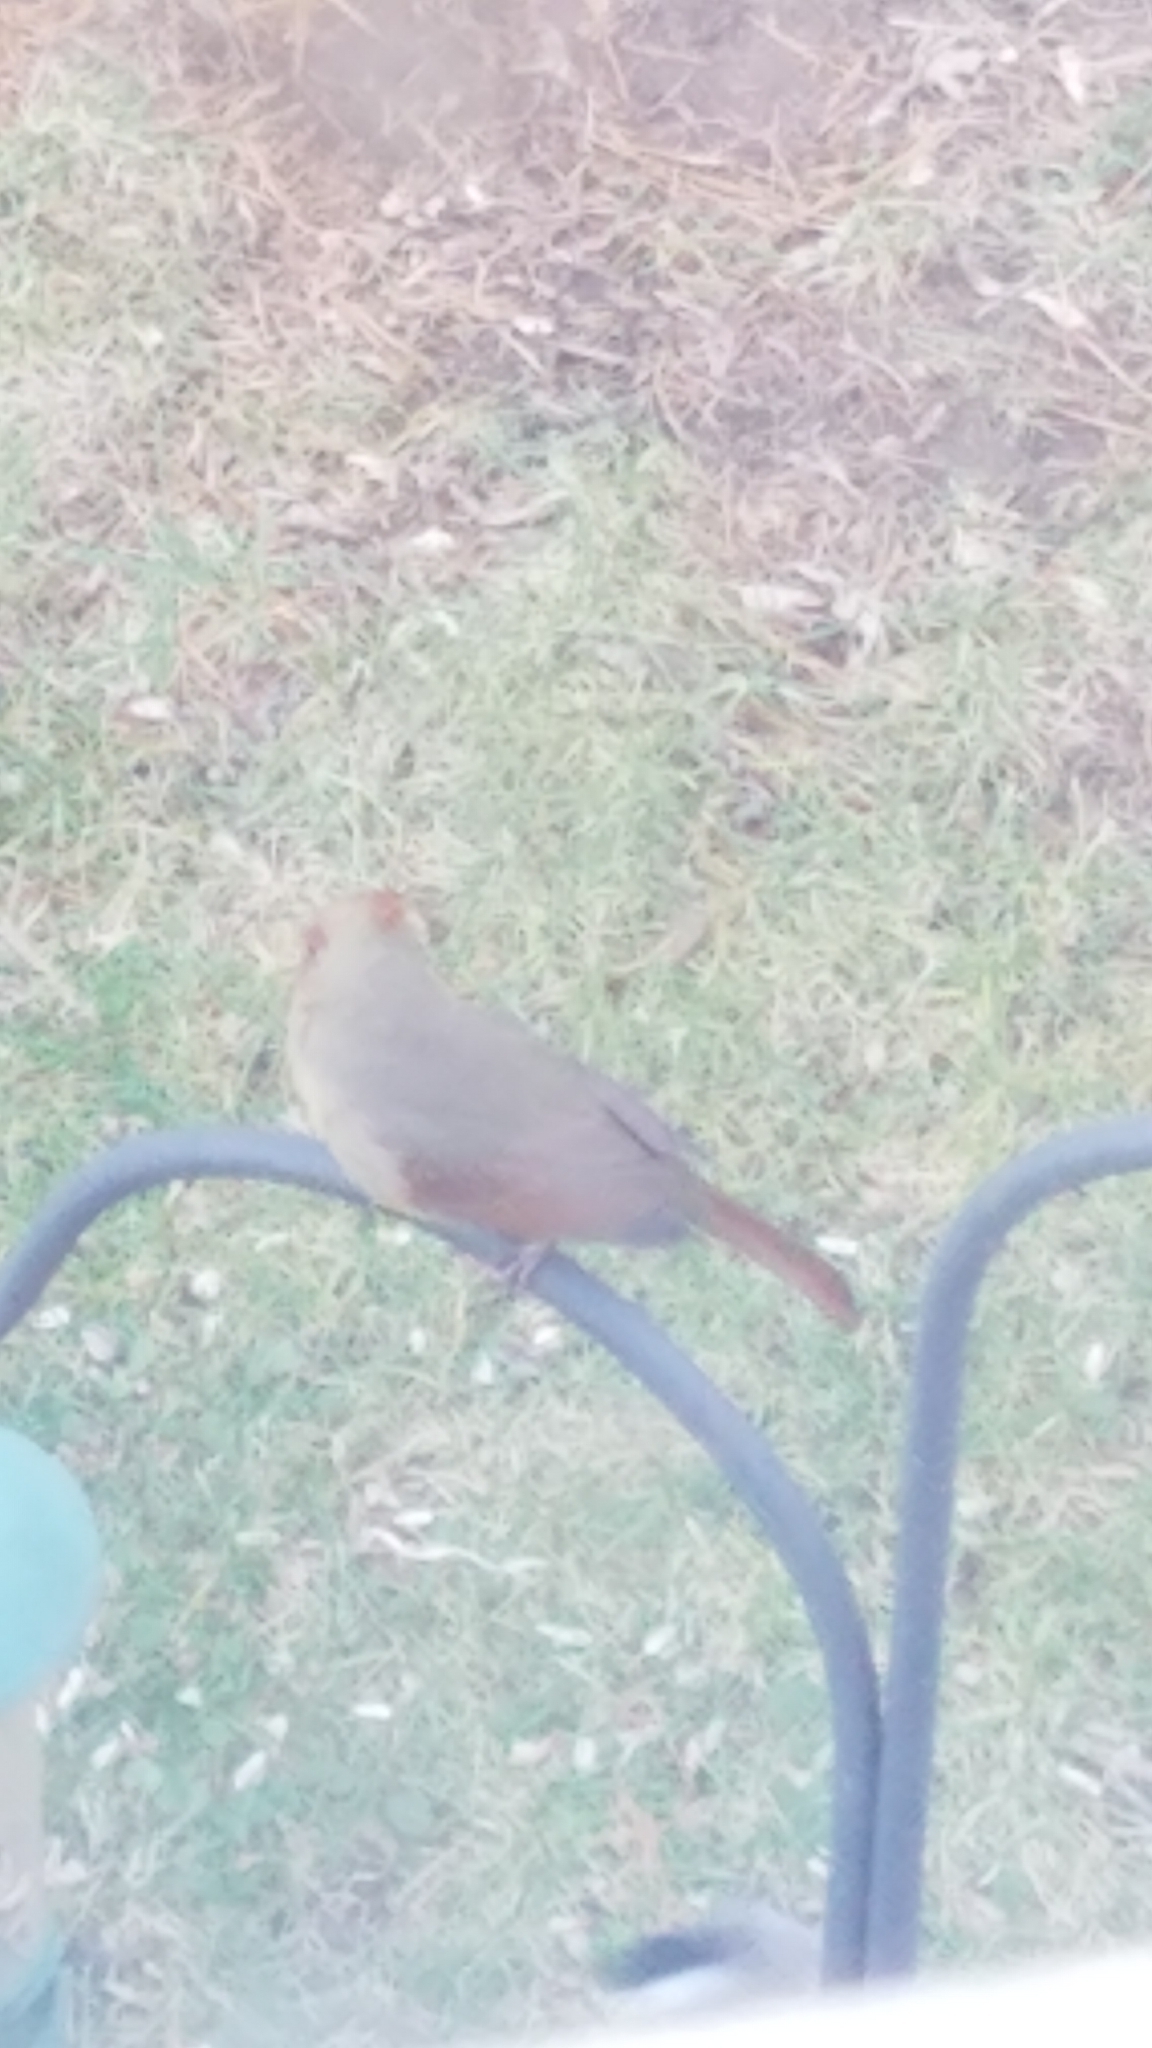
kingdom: Animalia
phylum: Chordata
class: Aves
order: Passeriformes
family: Cardinalidae
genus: Cardinalis
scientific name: Cardinalis cardinalis
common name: Northern cardinal
